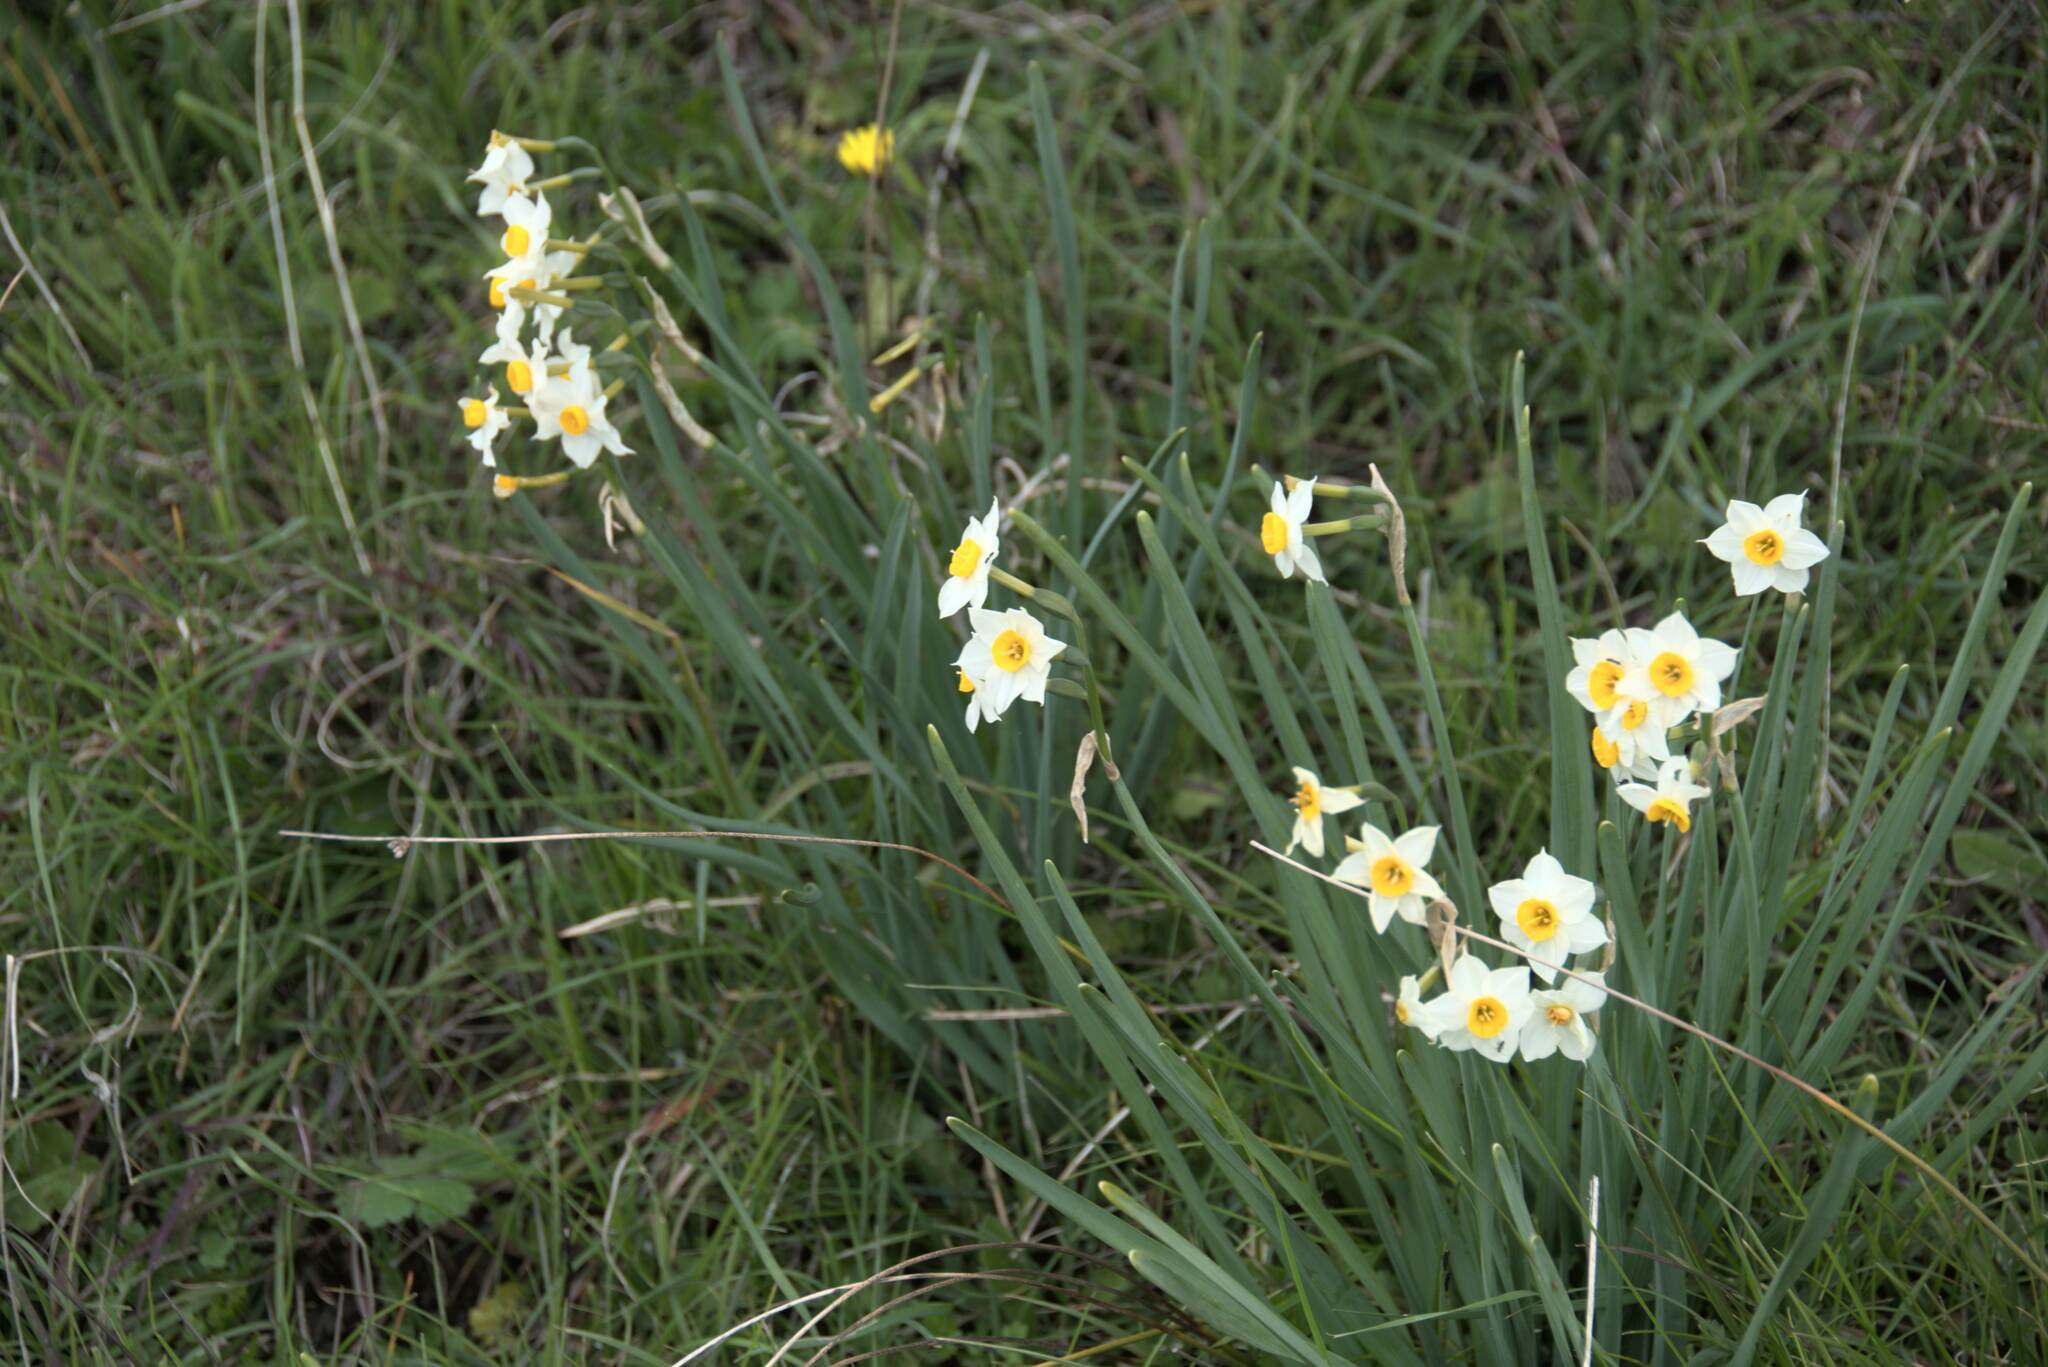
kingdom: Plantae
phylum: Tracheophyta
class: Liliopsida
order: Asparagales
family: Amaryllidaceae
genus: Narcissus
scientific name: Narcissus tazetta
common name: Bunch-flowered daffodil
